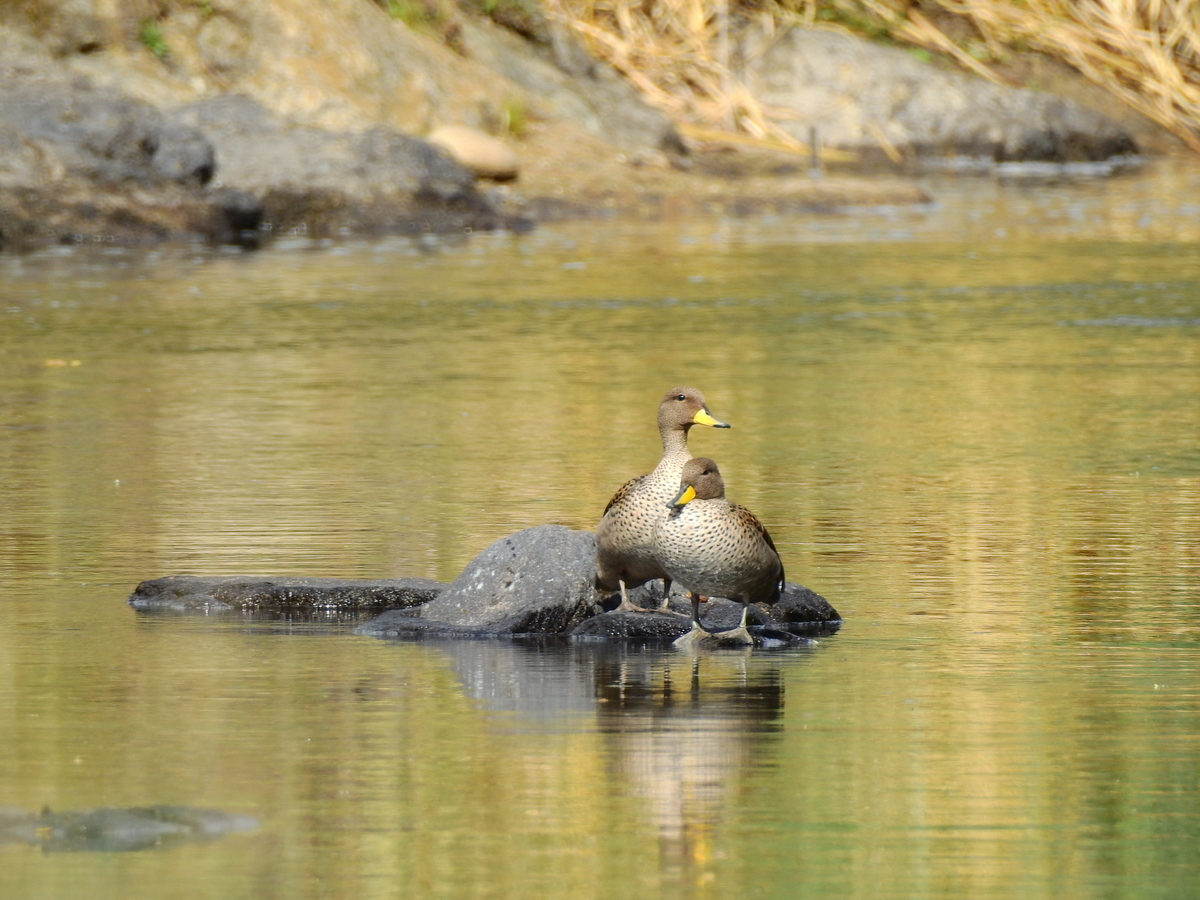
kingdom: Animalia
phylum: Chordata
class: Aves
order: Anseriformes
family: Anatidae
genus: Anas
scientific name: Anas flavirostris
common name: Yellow-billed teal
